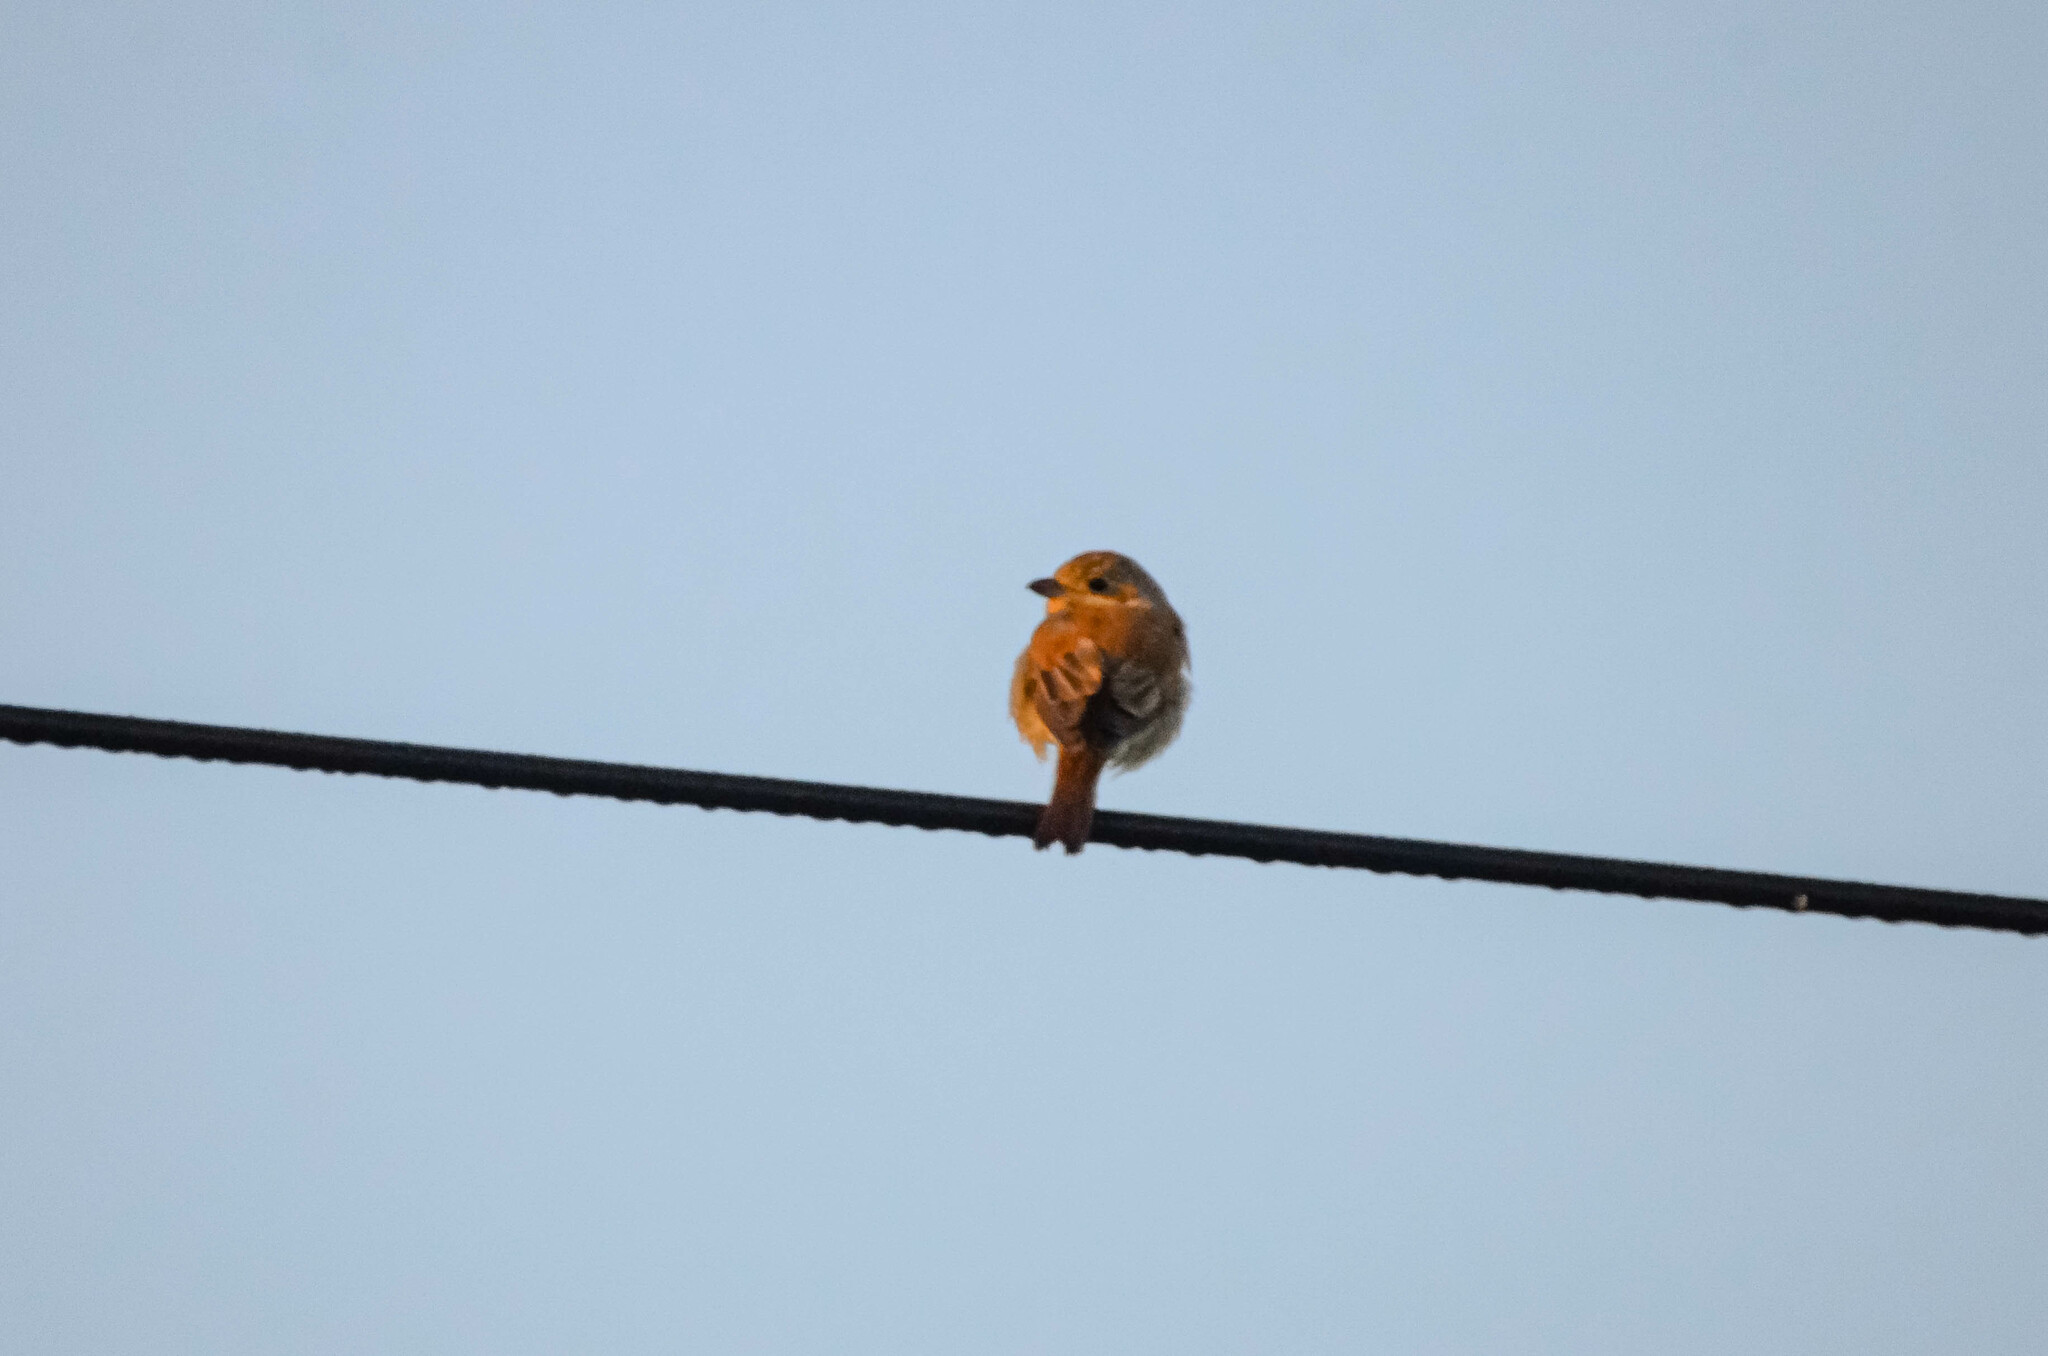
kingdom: Animalia
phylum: Chordata
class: Aves
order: Passeriformes
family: Laniidae
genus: Lanius
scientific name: Lanius collurio
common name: Red-backed shrike
